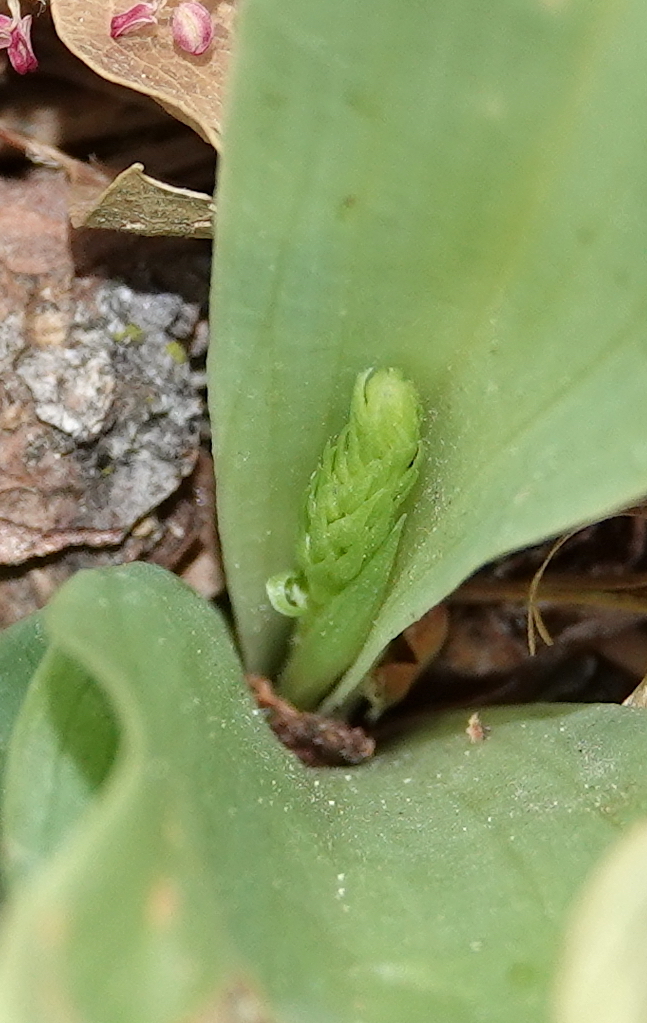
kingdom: Plantae
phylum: Tracheophyta
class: Liliopsida
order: Asparagales
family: Orchidaceae
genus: Platanthera
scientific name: Platanthera elongata
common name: Dense-flowered rein orchid
